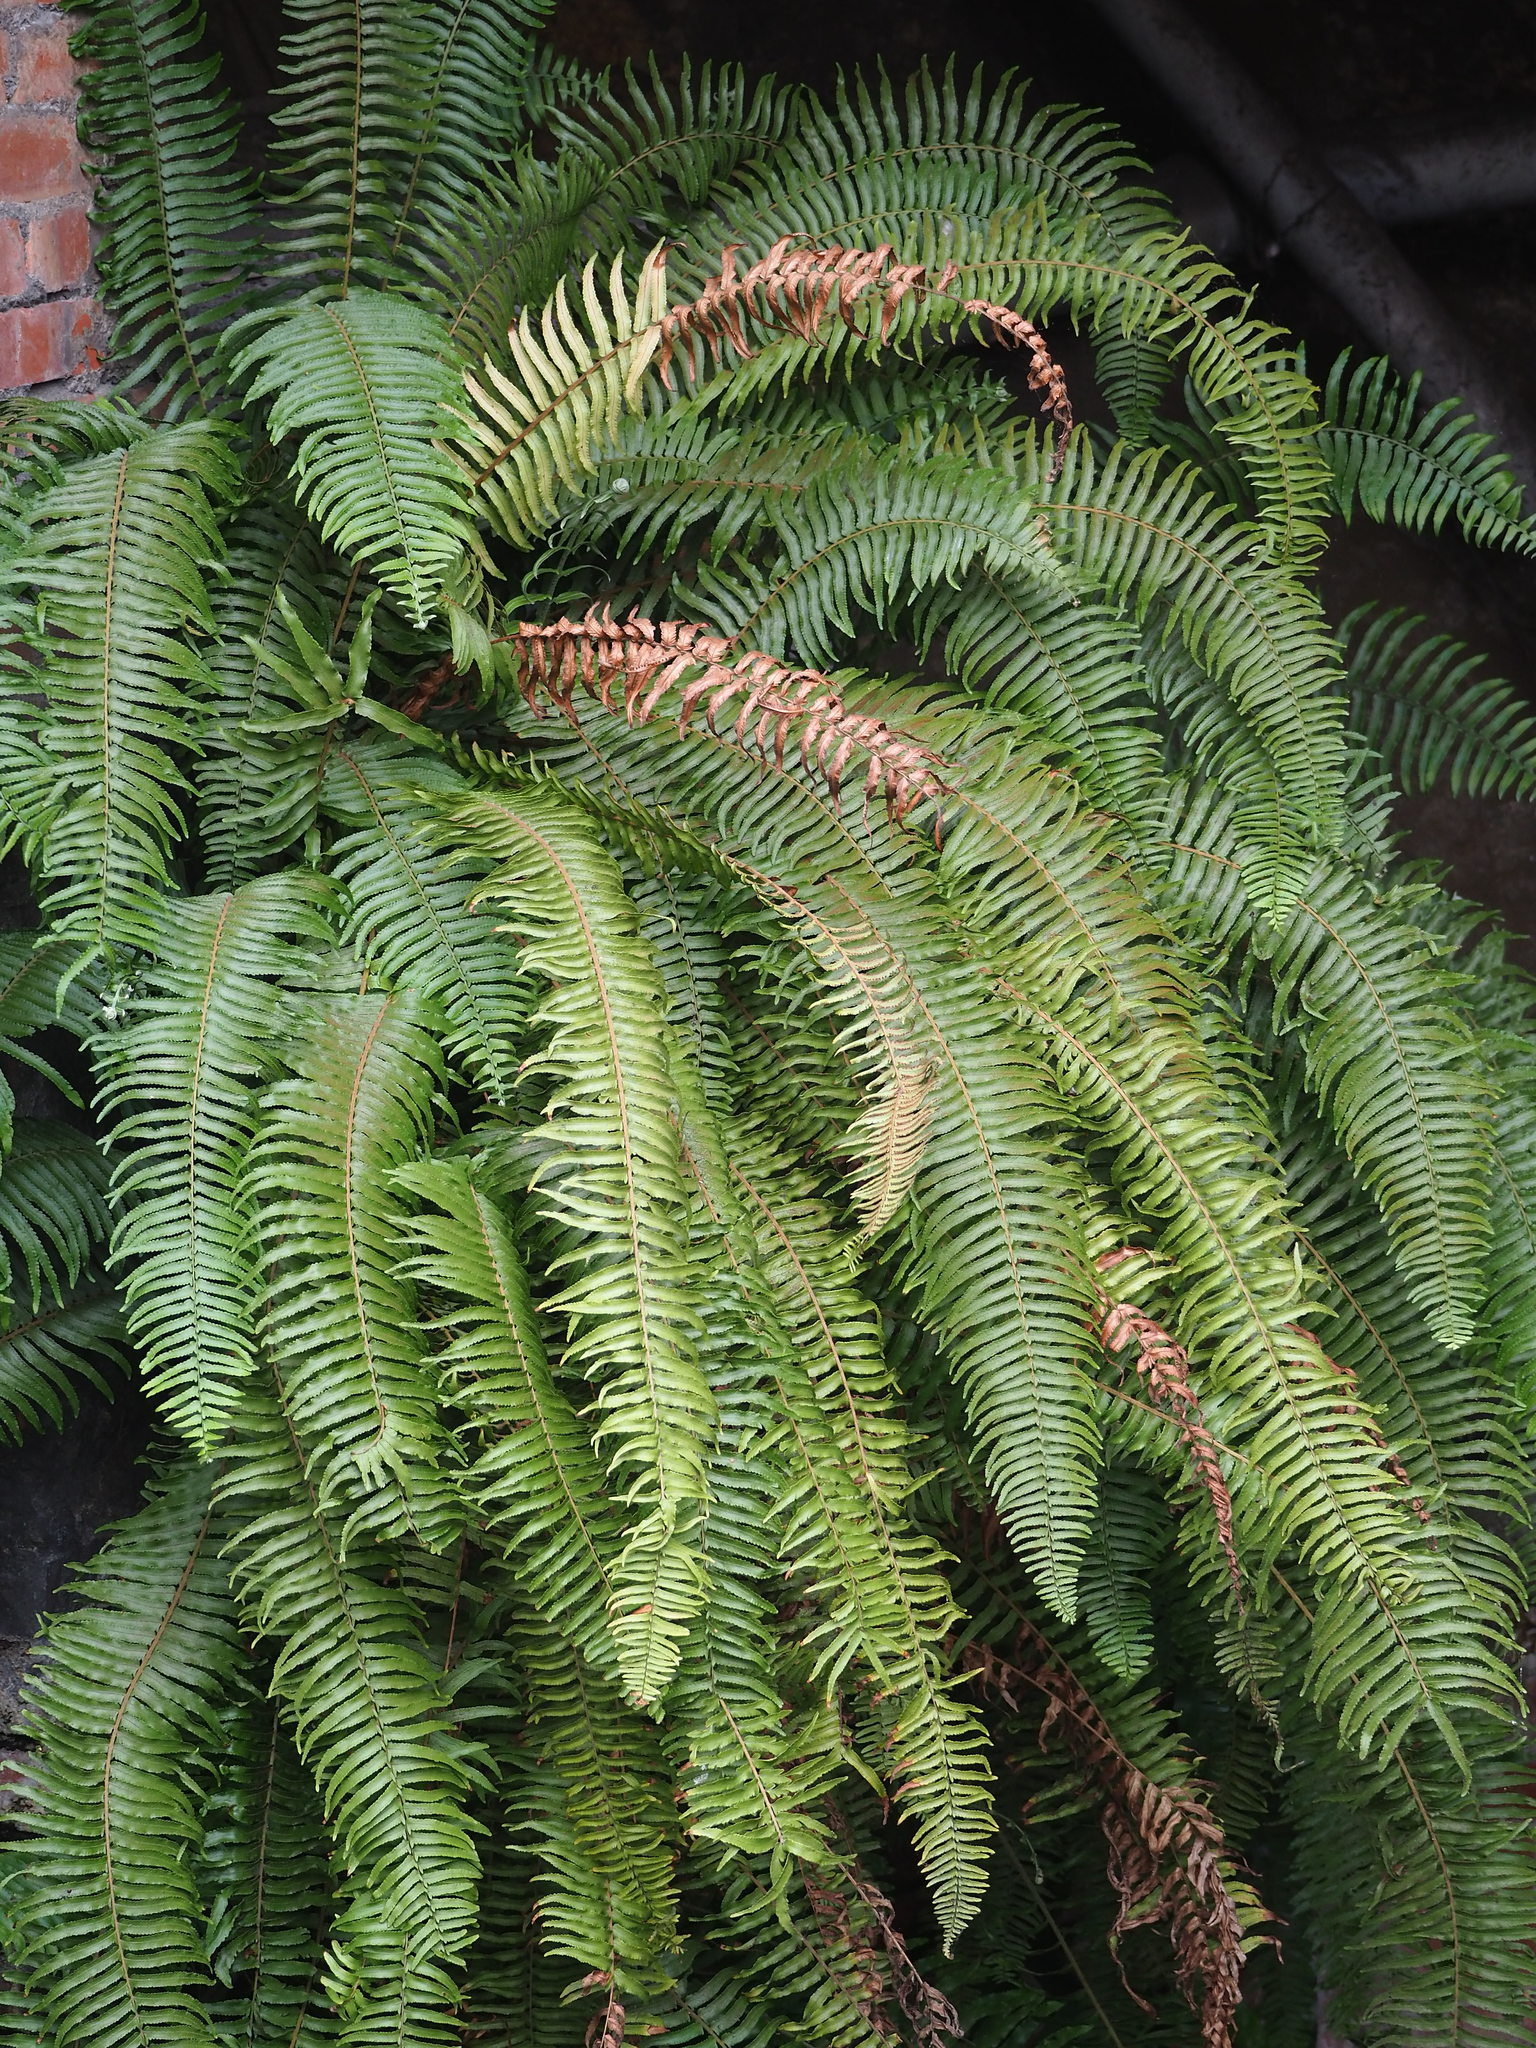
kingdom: Plantae
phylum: Tracheophyta
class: Polypodiopsida
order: Polypodiales
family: Nephrolepidaceae
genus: Nephrolepis
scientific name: Nephrolepis brownii
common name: Asian swordfern
